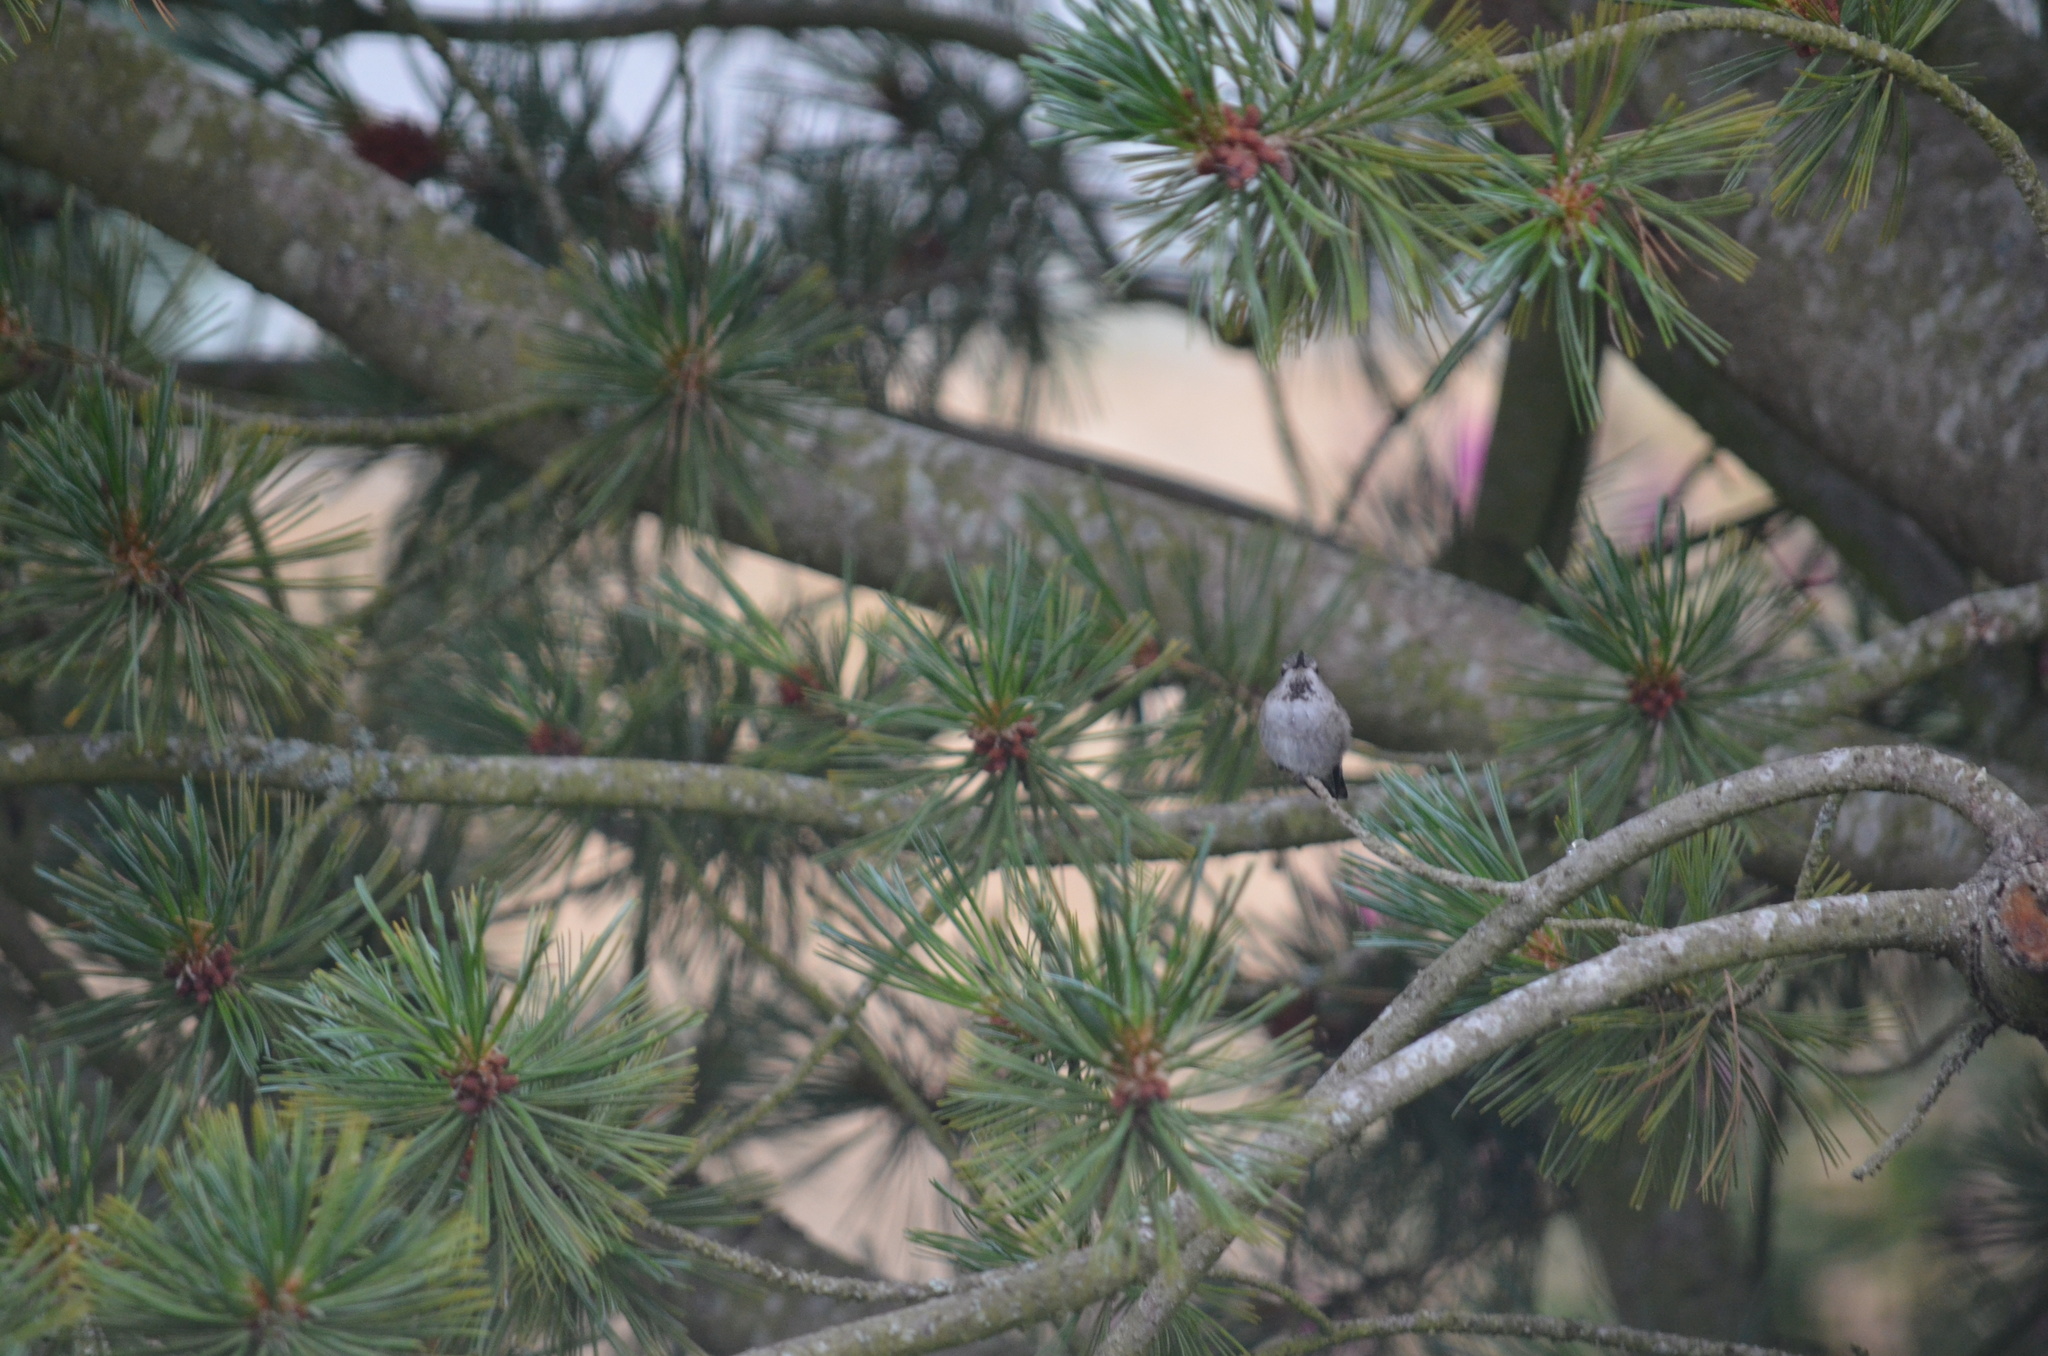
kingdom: Animalia
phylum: Chordata
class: Aves
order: Apodiformes
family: Trochilidae
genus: Calypte
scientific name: Calypte anna
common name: Anna's hummingbird
